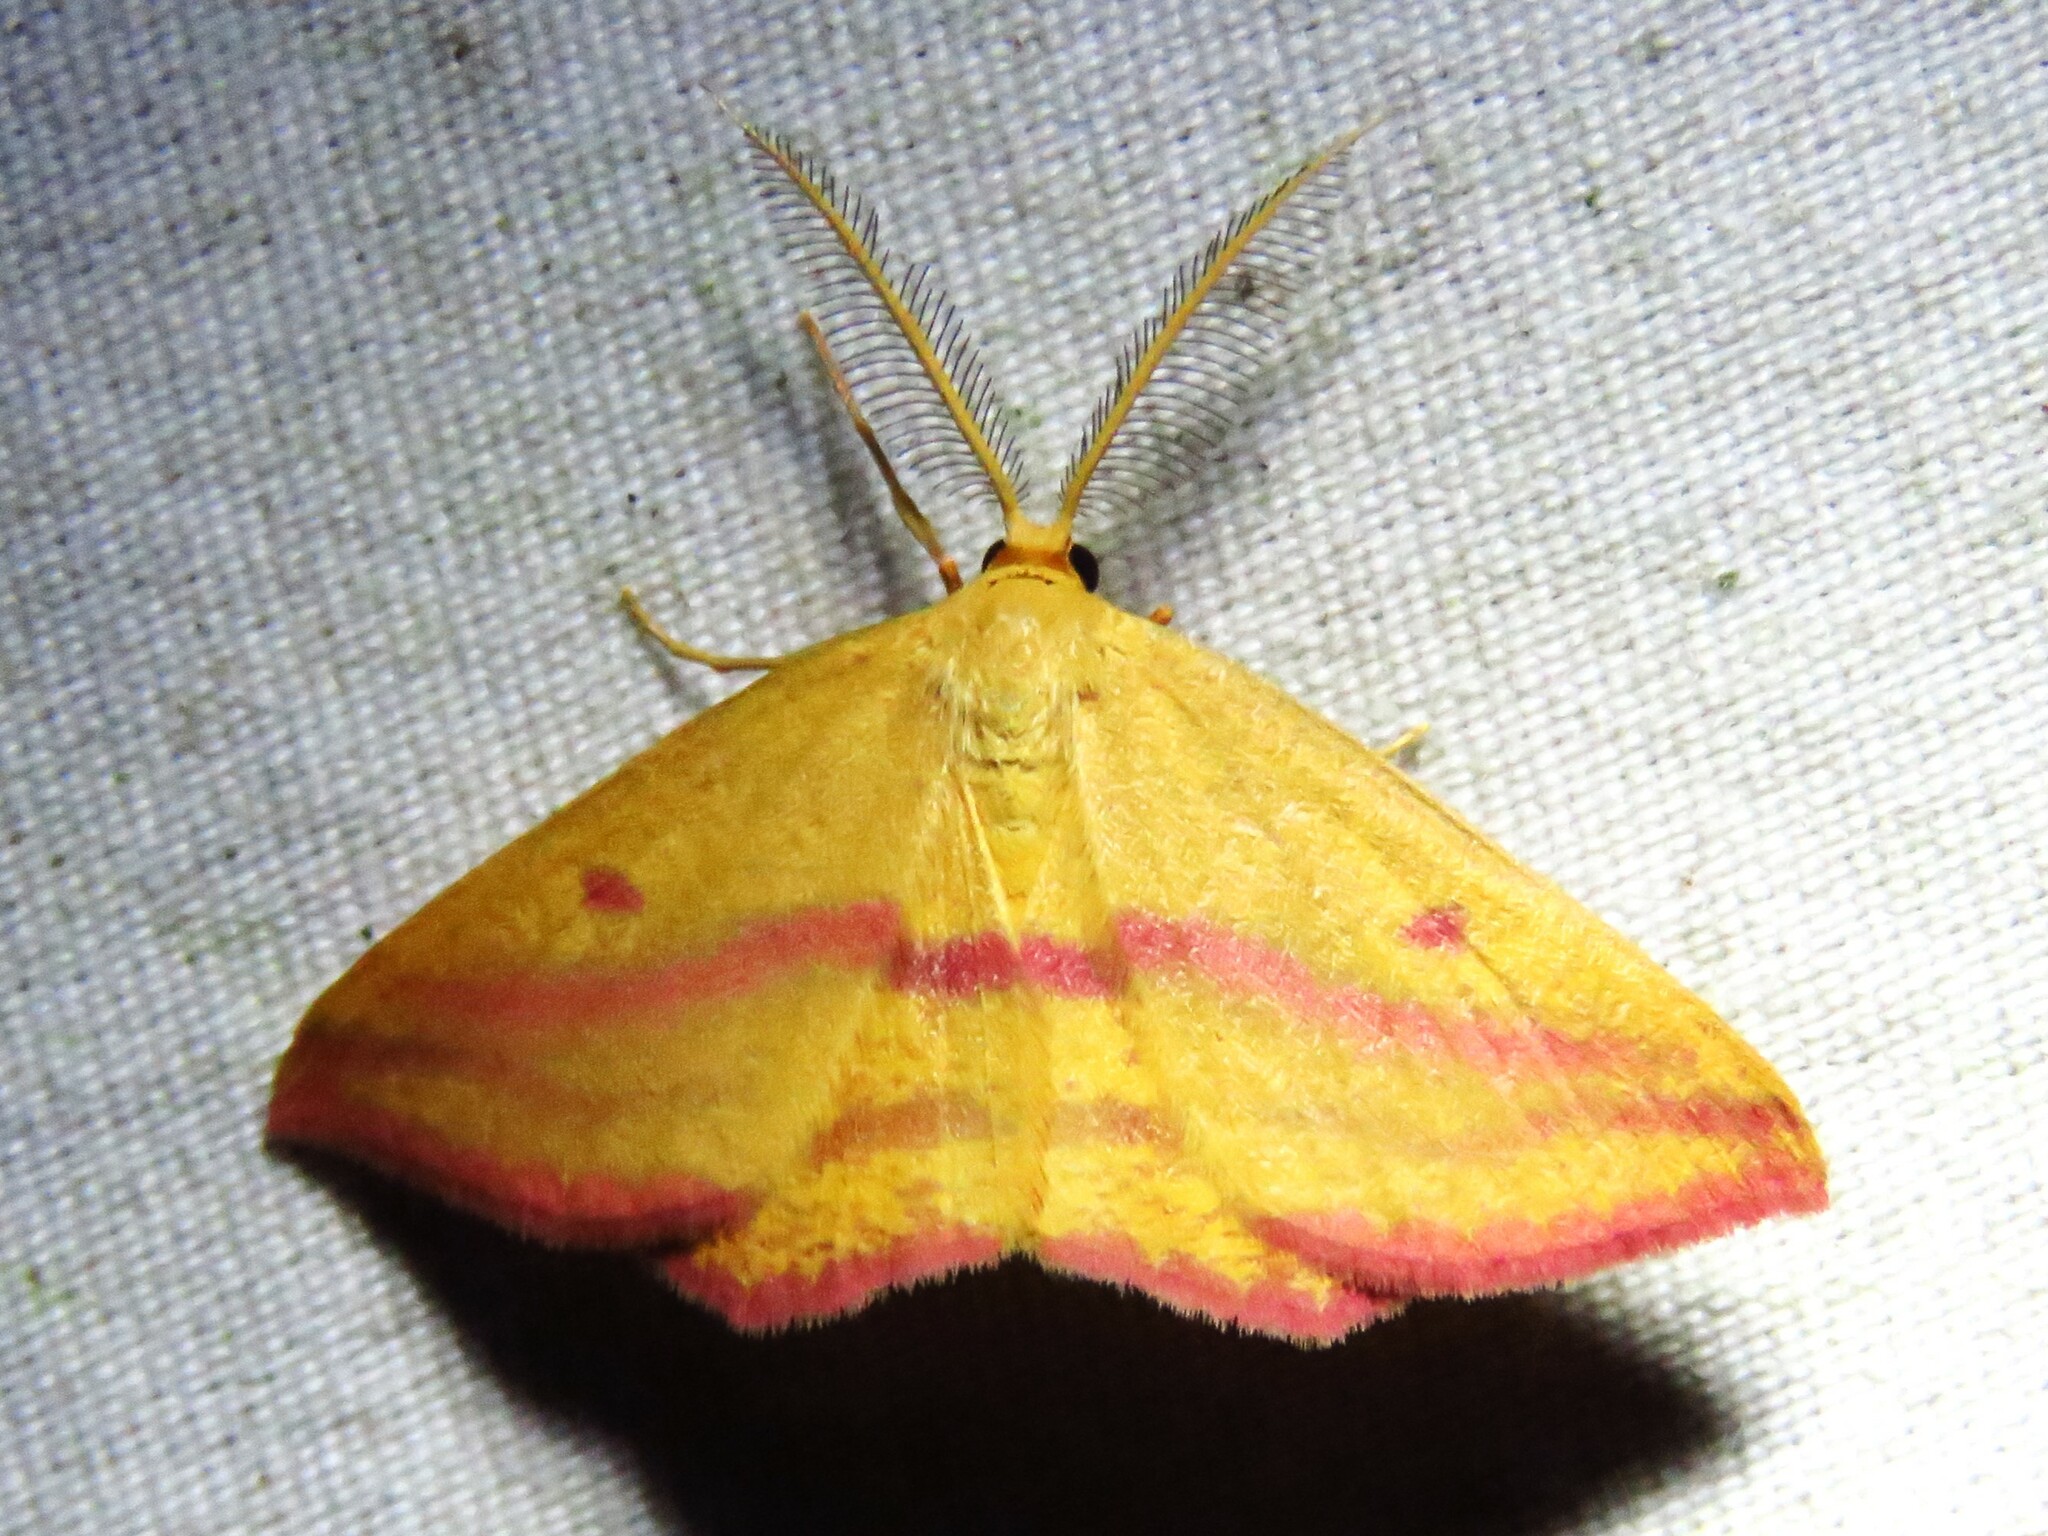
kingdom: Animalia
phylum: Arthropoda
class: Insecta
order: Lepidoptera
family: Geometridae
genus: Haematopis
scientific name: Haematopis grataria
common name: Chickweed geometer
